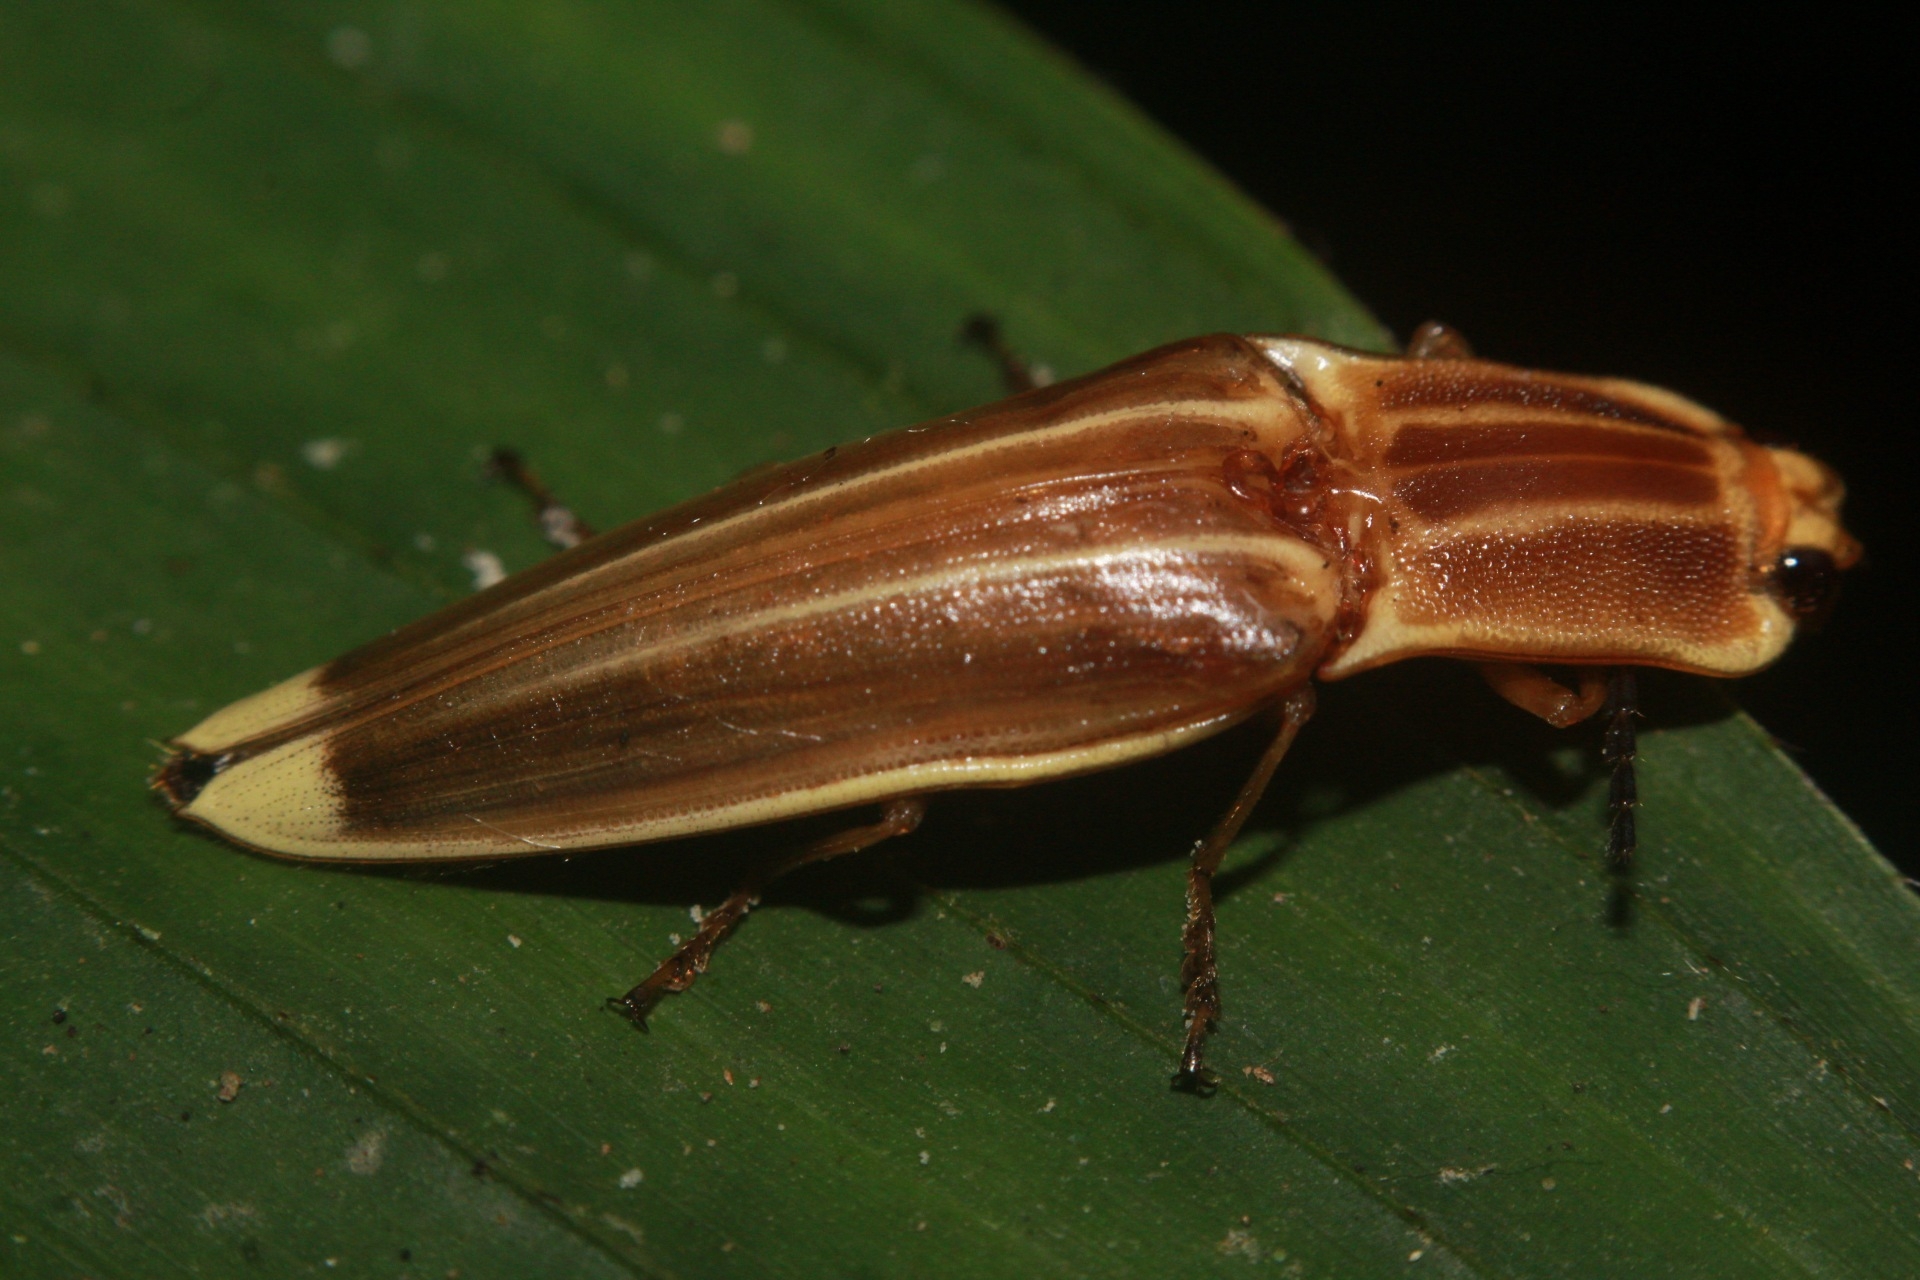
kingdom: Animalia
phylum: Arthropoda
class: Insecta
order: Coleoptera
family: Elateridae
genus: Semiotus
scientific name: Semiotus ligneus
